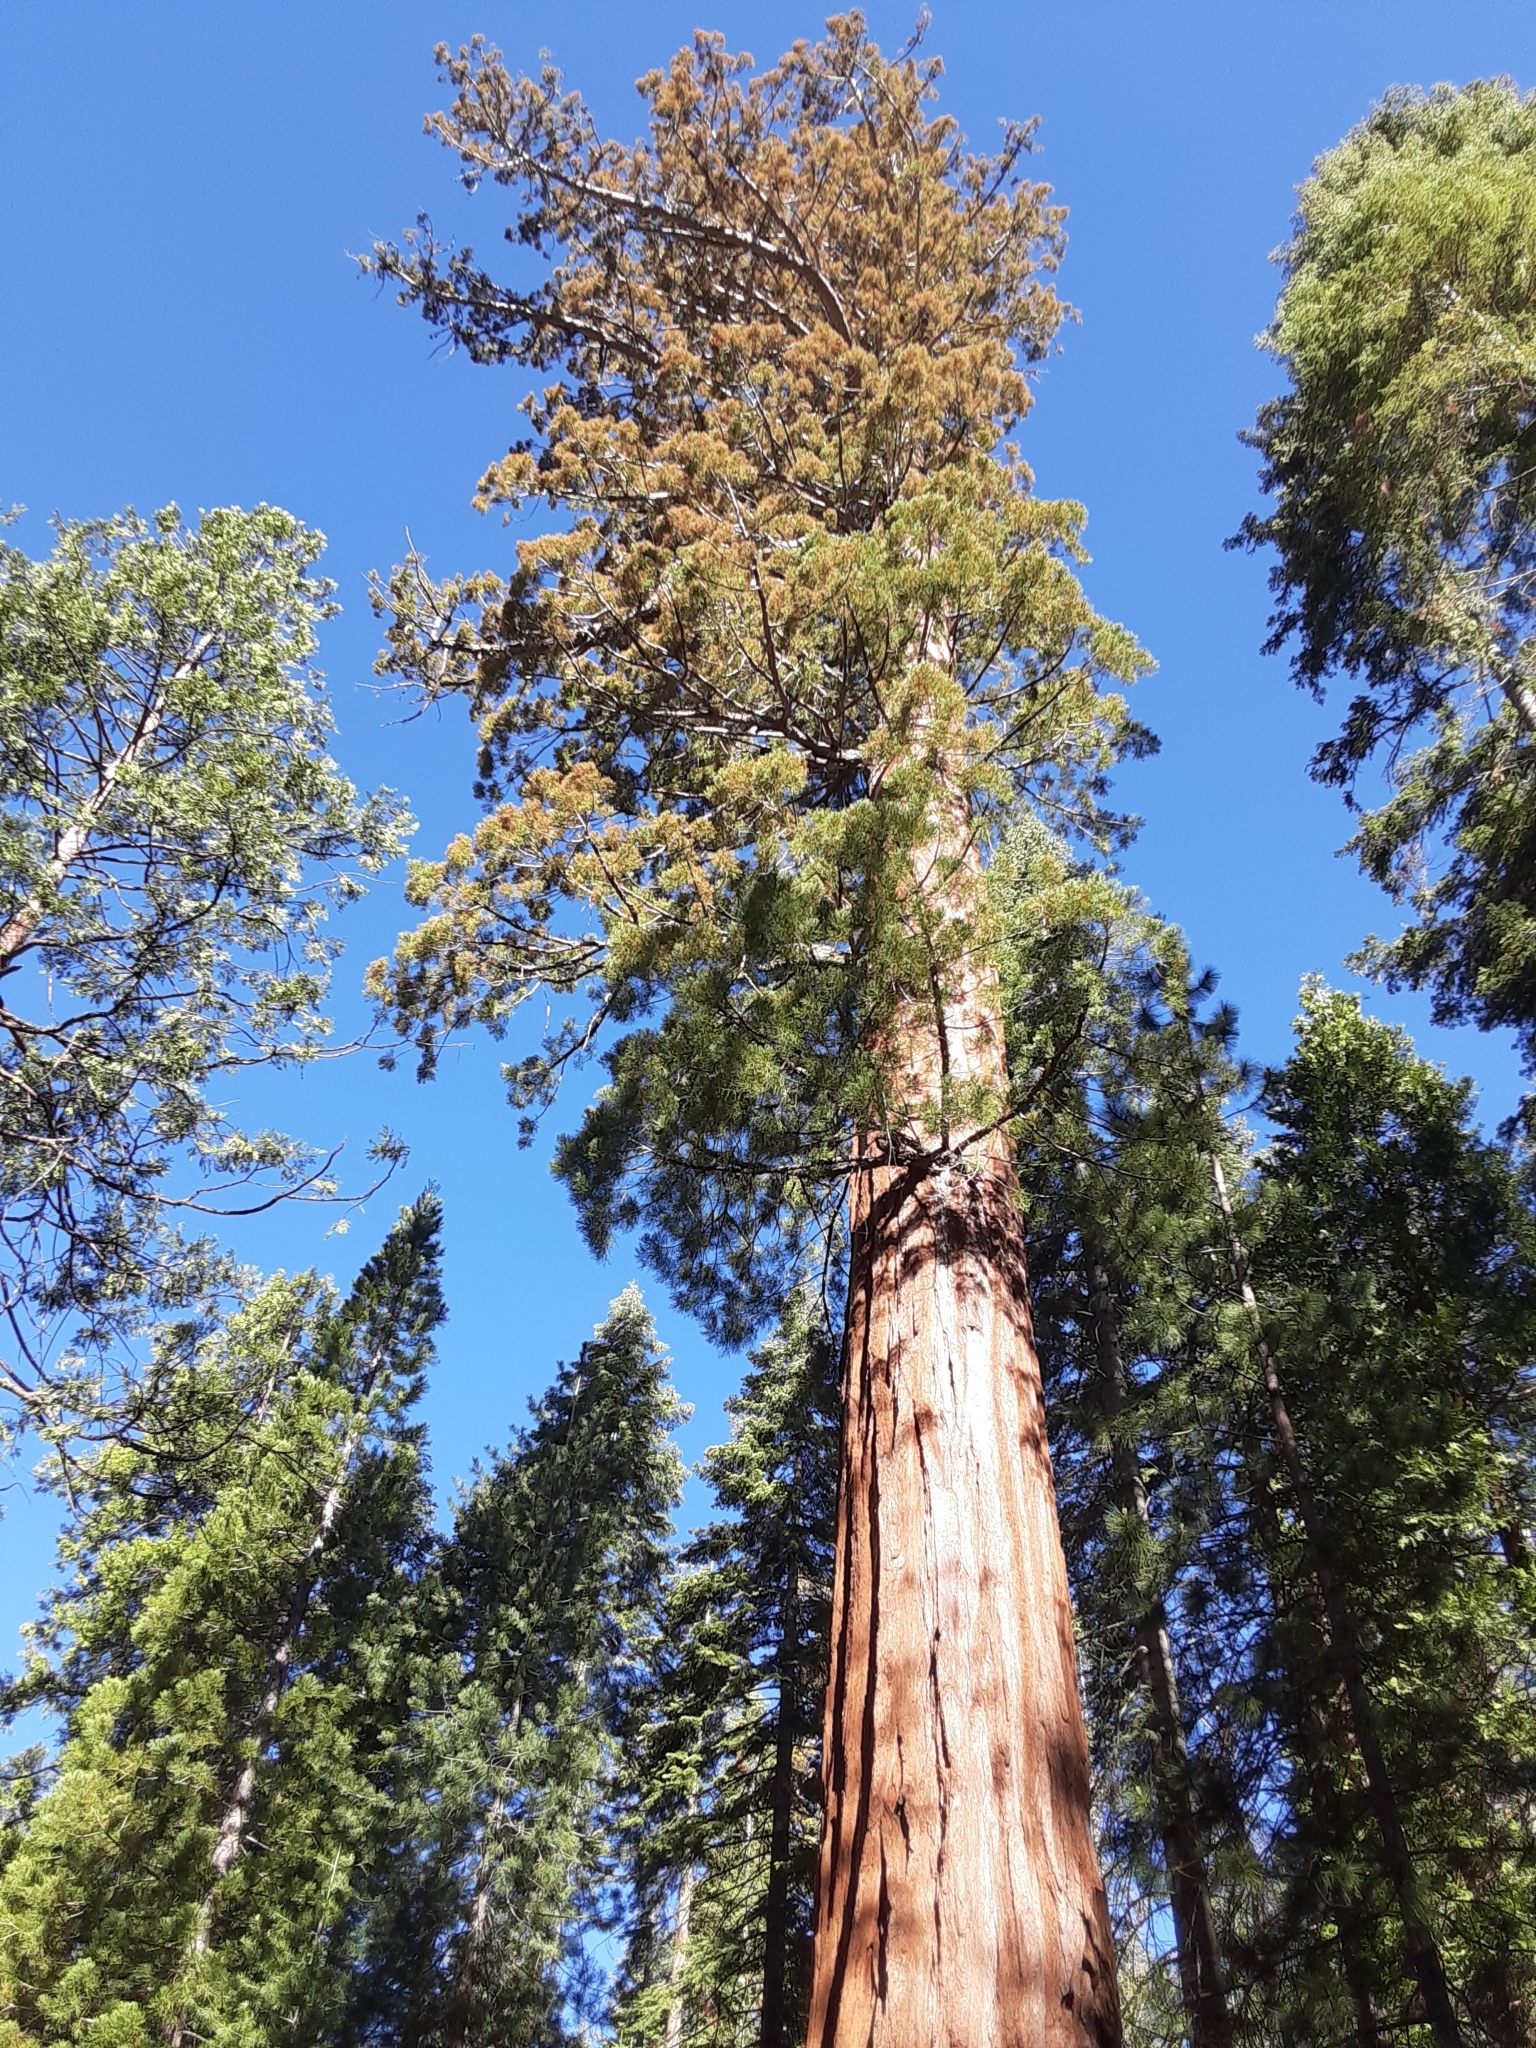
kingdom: Plantae
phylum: Tracheophyta
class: Pinopsida
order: Pinales
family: Cupressaceae
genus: Sequoiadendron
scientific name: Sequoiadendron giganteum
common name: Wellingtonia
